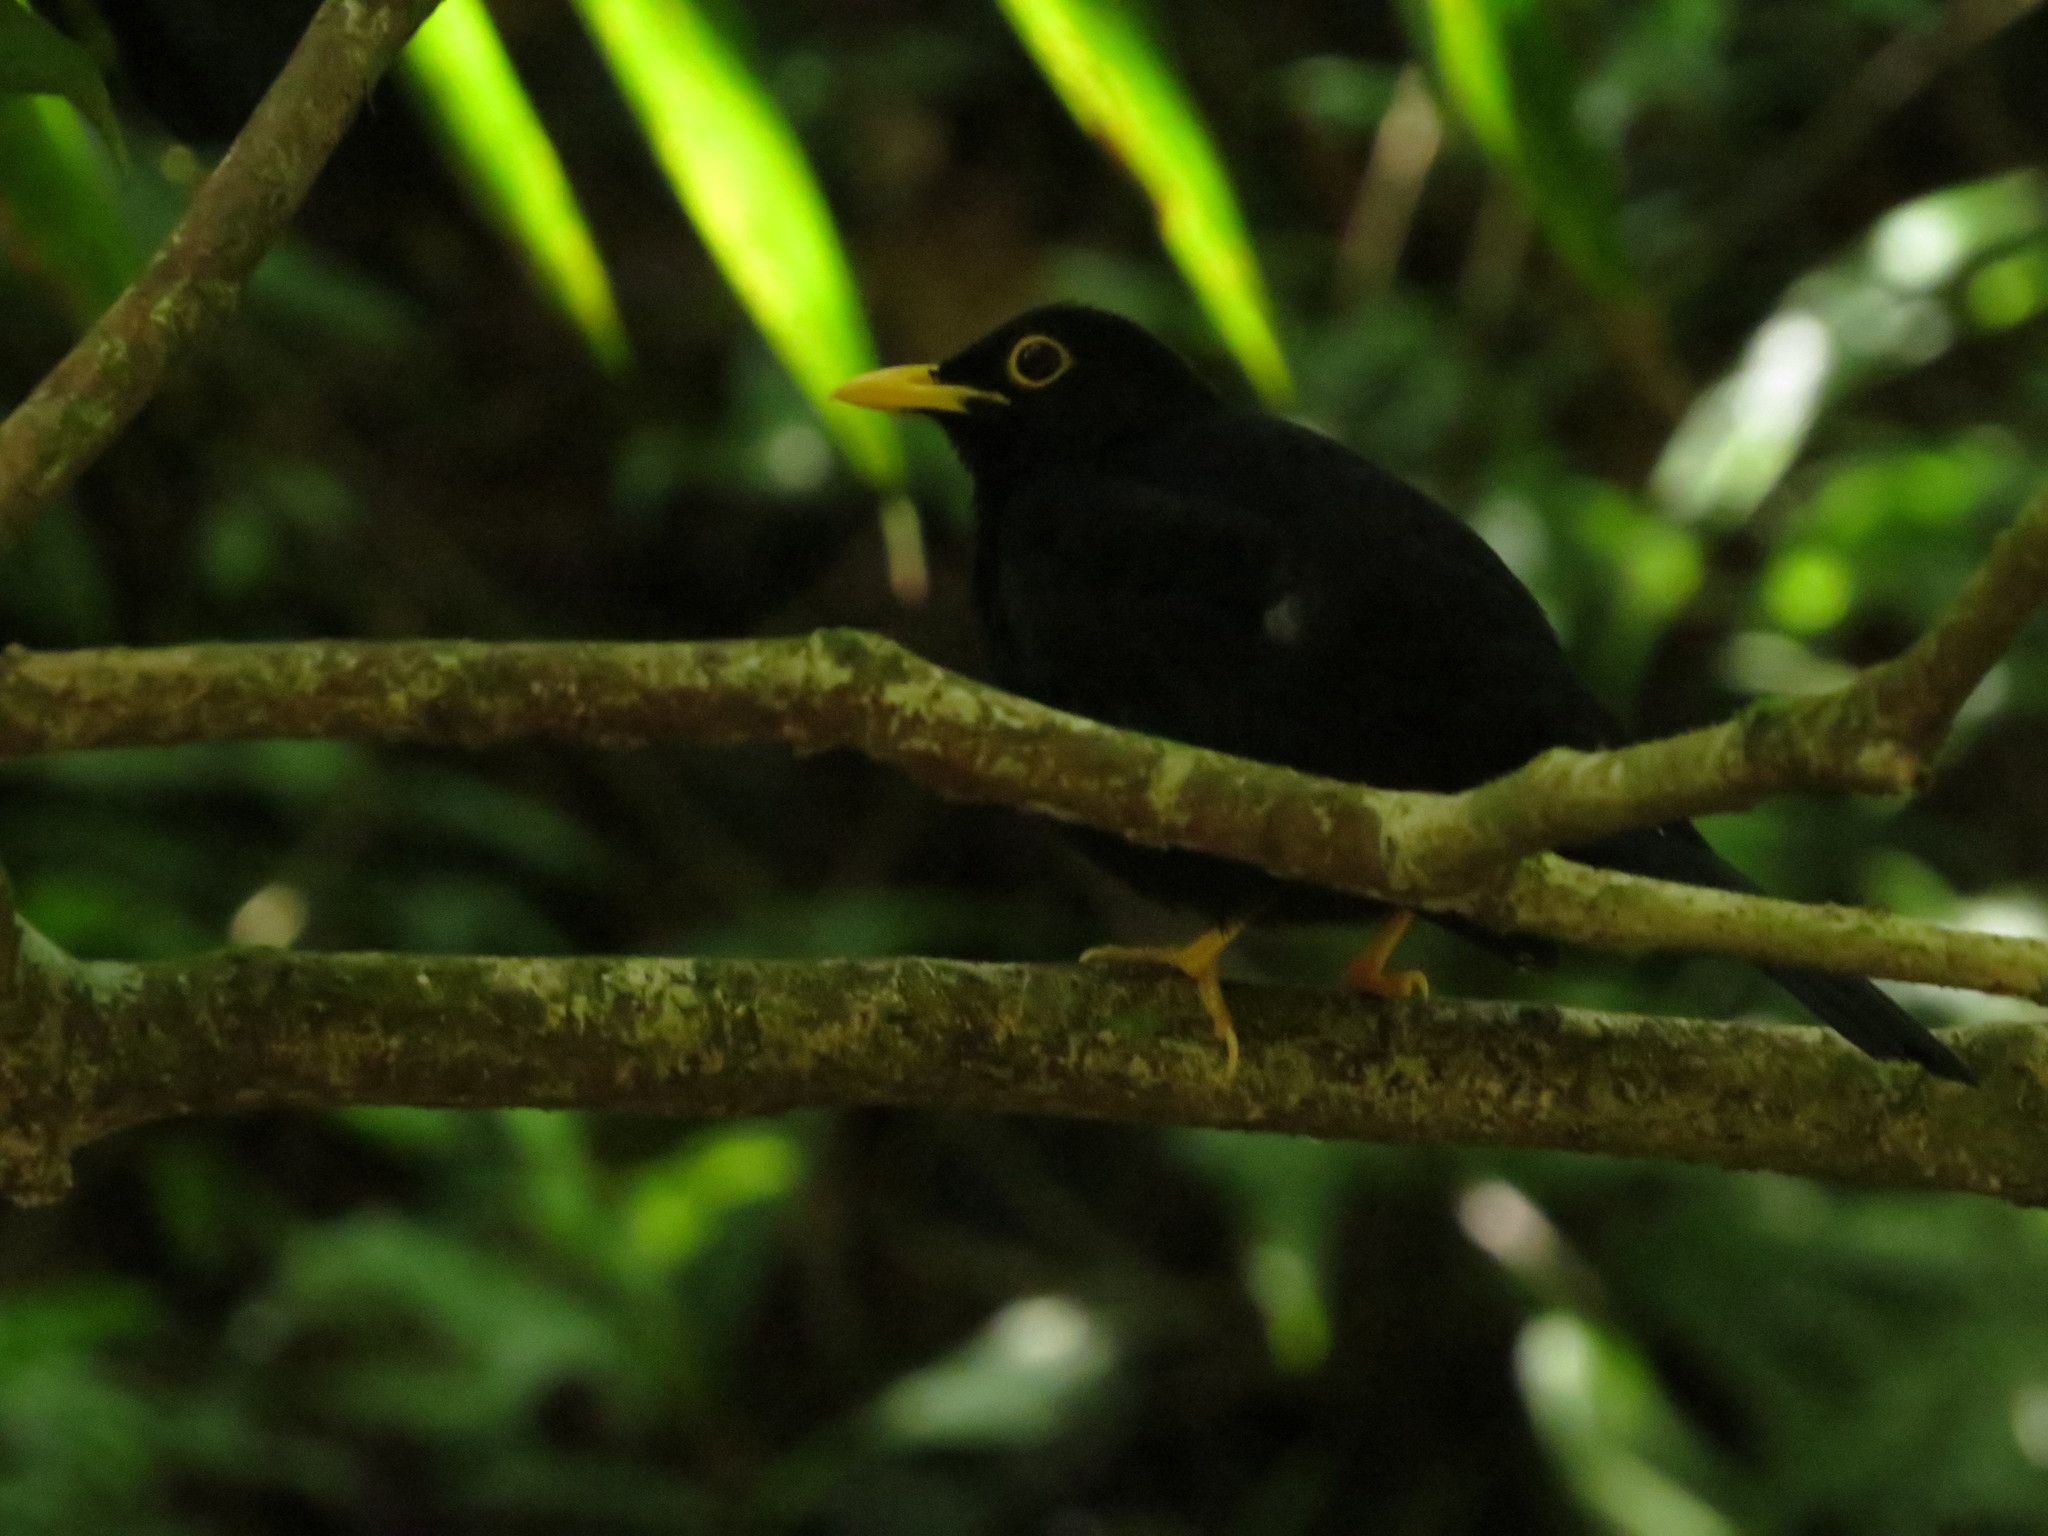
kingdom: Animalia
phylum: Chordata
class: Aves
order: Passeriformes
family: Turdidae
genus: Turdus
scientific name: Turdus flavipes
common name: Yellow-legged thrush
